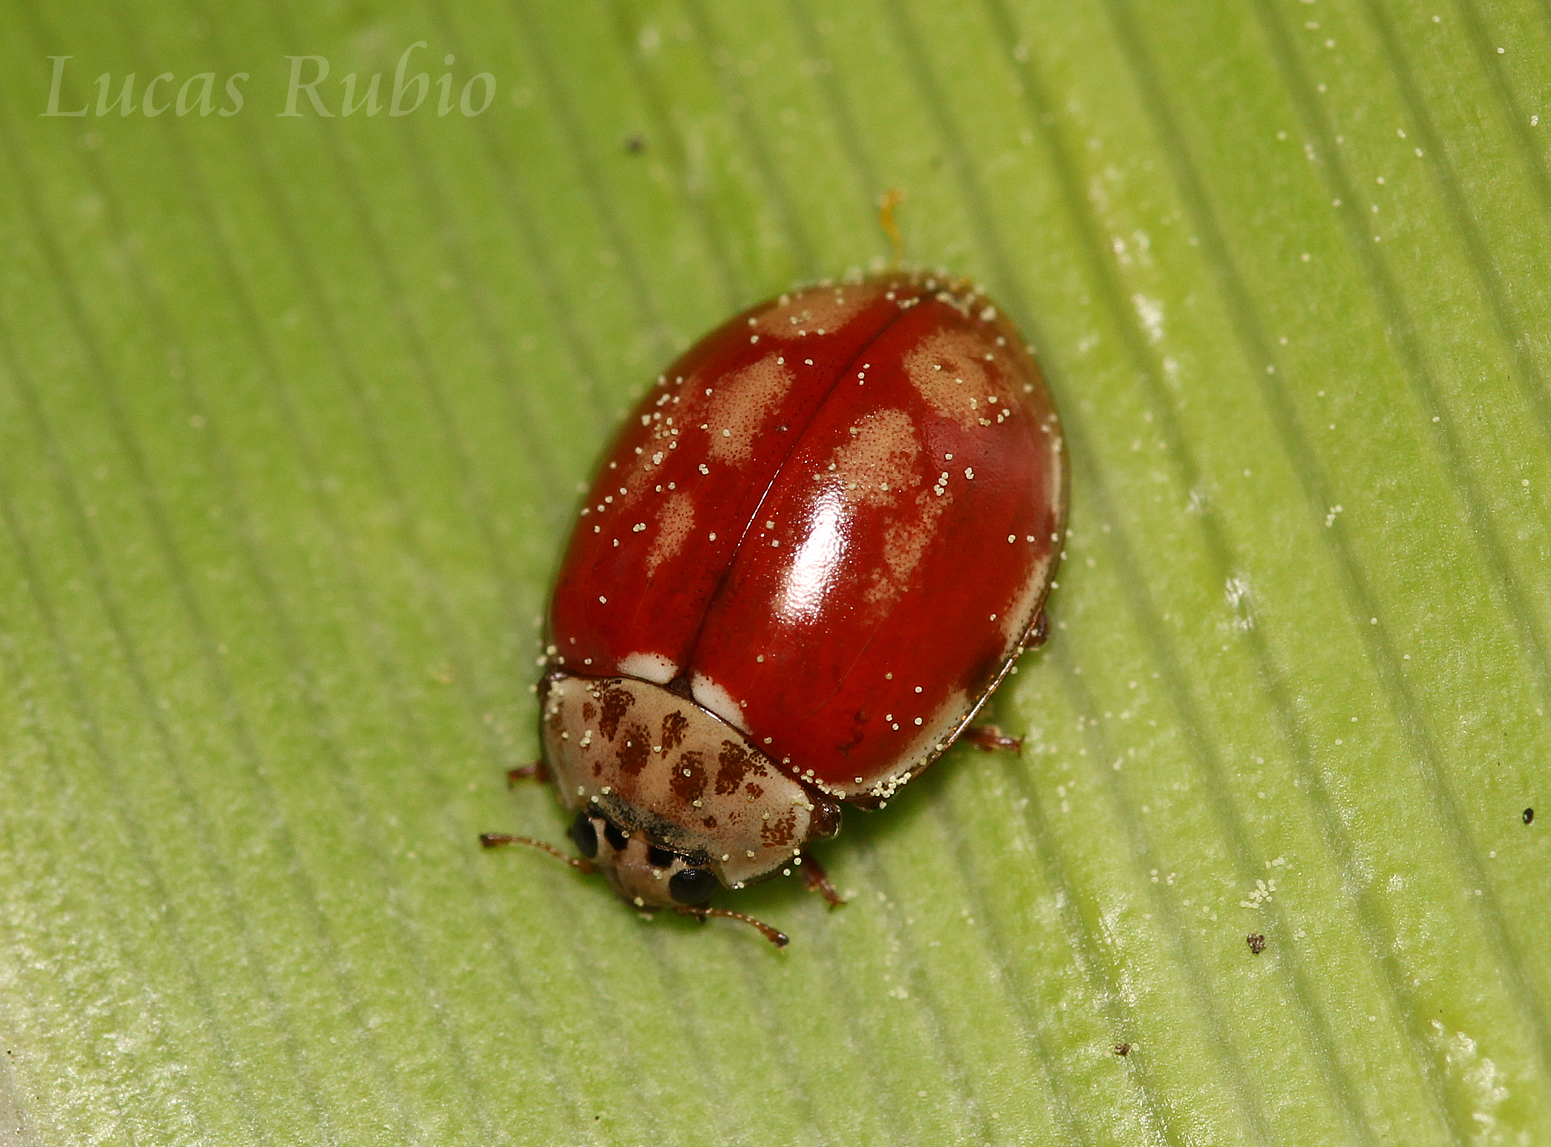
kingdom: Animalia
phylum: Arthropoda
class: Insecta
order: Coleoptera
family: Coccinellidae
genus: Harmonia
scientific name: Harmonia quadripunctata
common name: Cream-streaked ladybird
